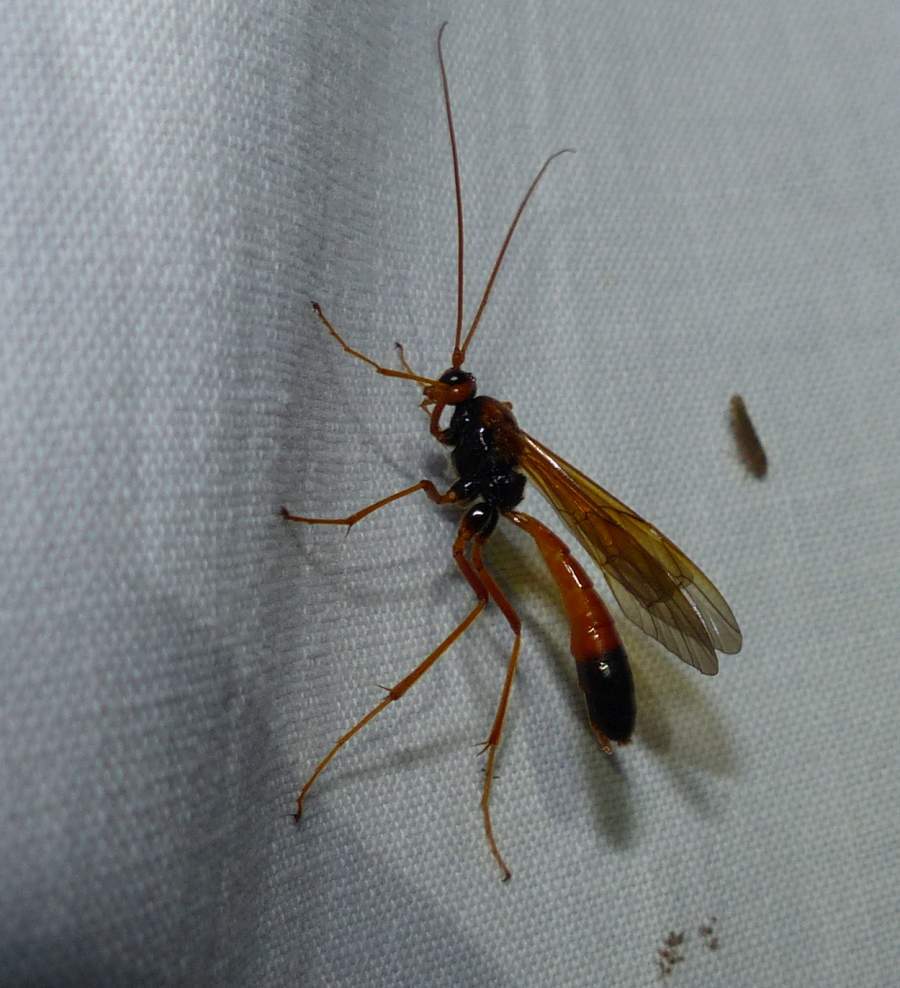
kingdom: Animalia
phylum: Arthropoda
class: Insecta
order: Hymenoptera
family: Ichneumonidae
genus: Opheltes
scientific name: Opheltes glaucopterus
